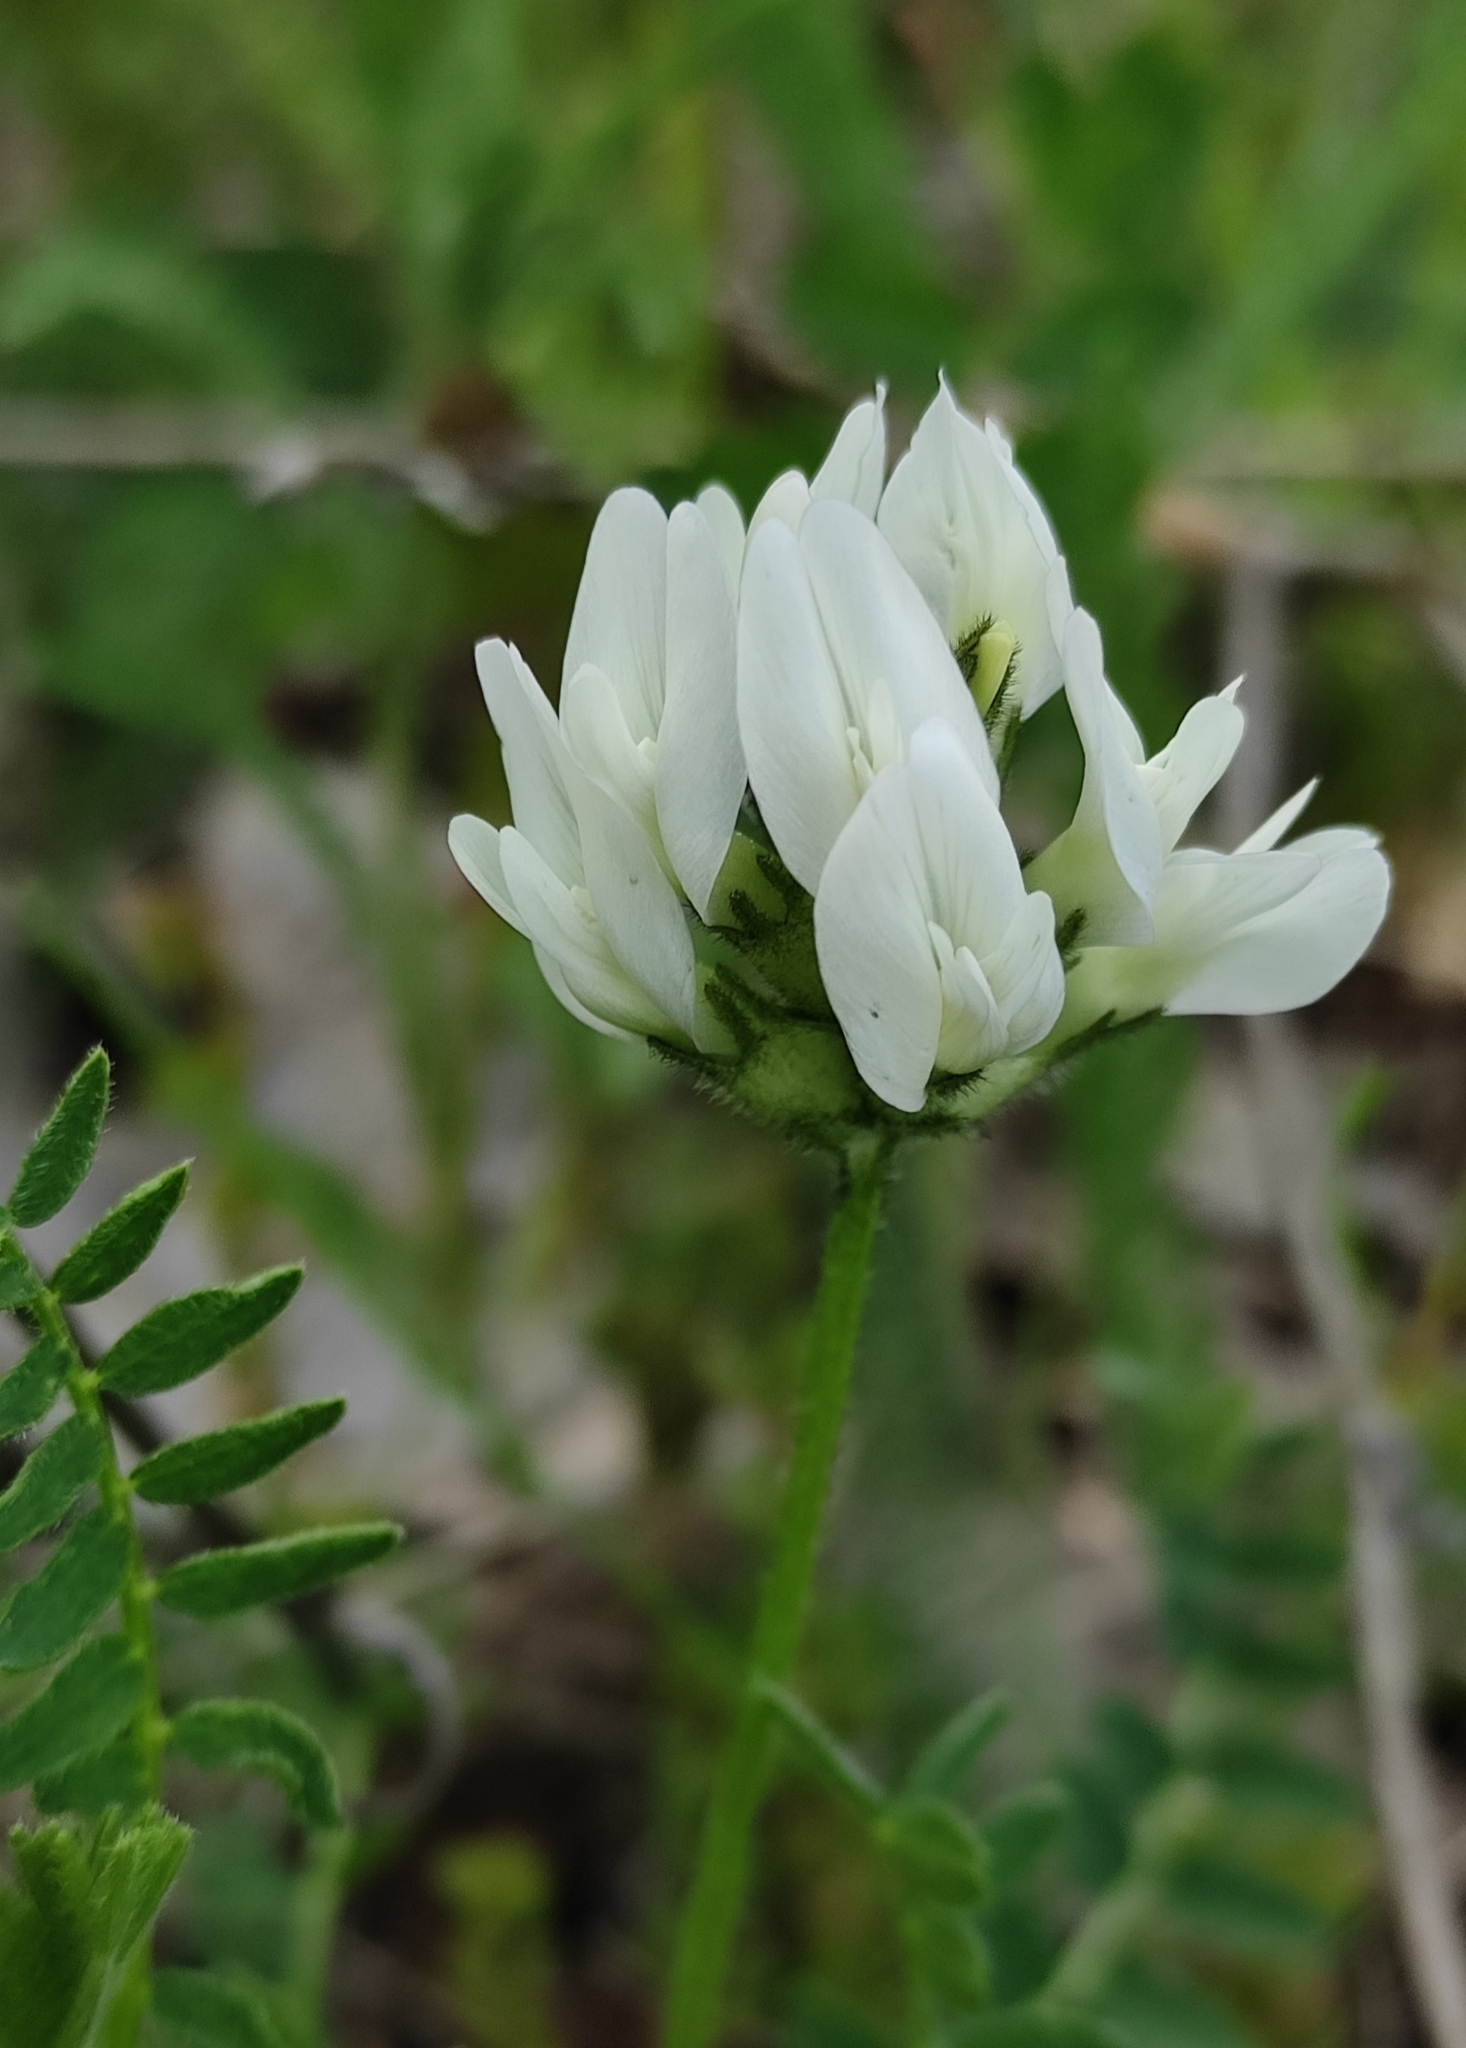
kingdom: Plantae
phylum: Tracheophyta
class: Magnoliopsida
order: Fabales
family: Fabaceae
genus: Astragalus
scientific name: Astragalus danicus
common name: Purple milk-vetch
